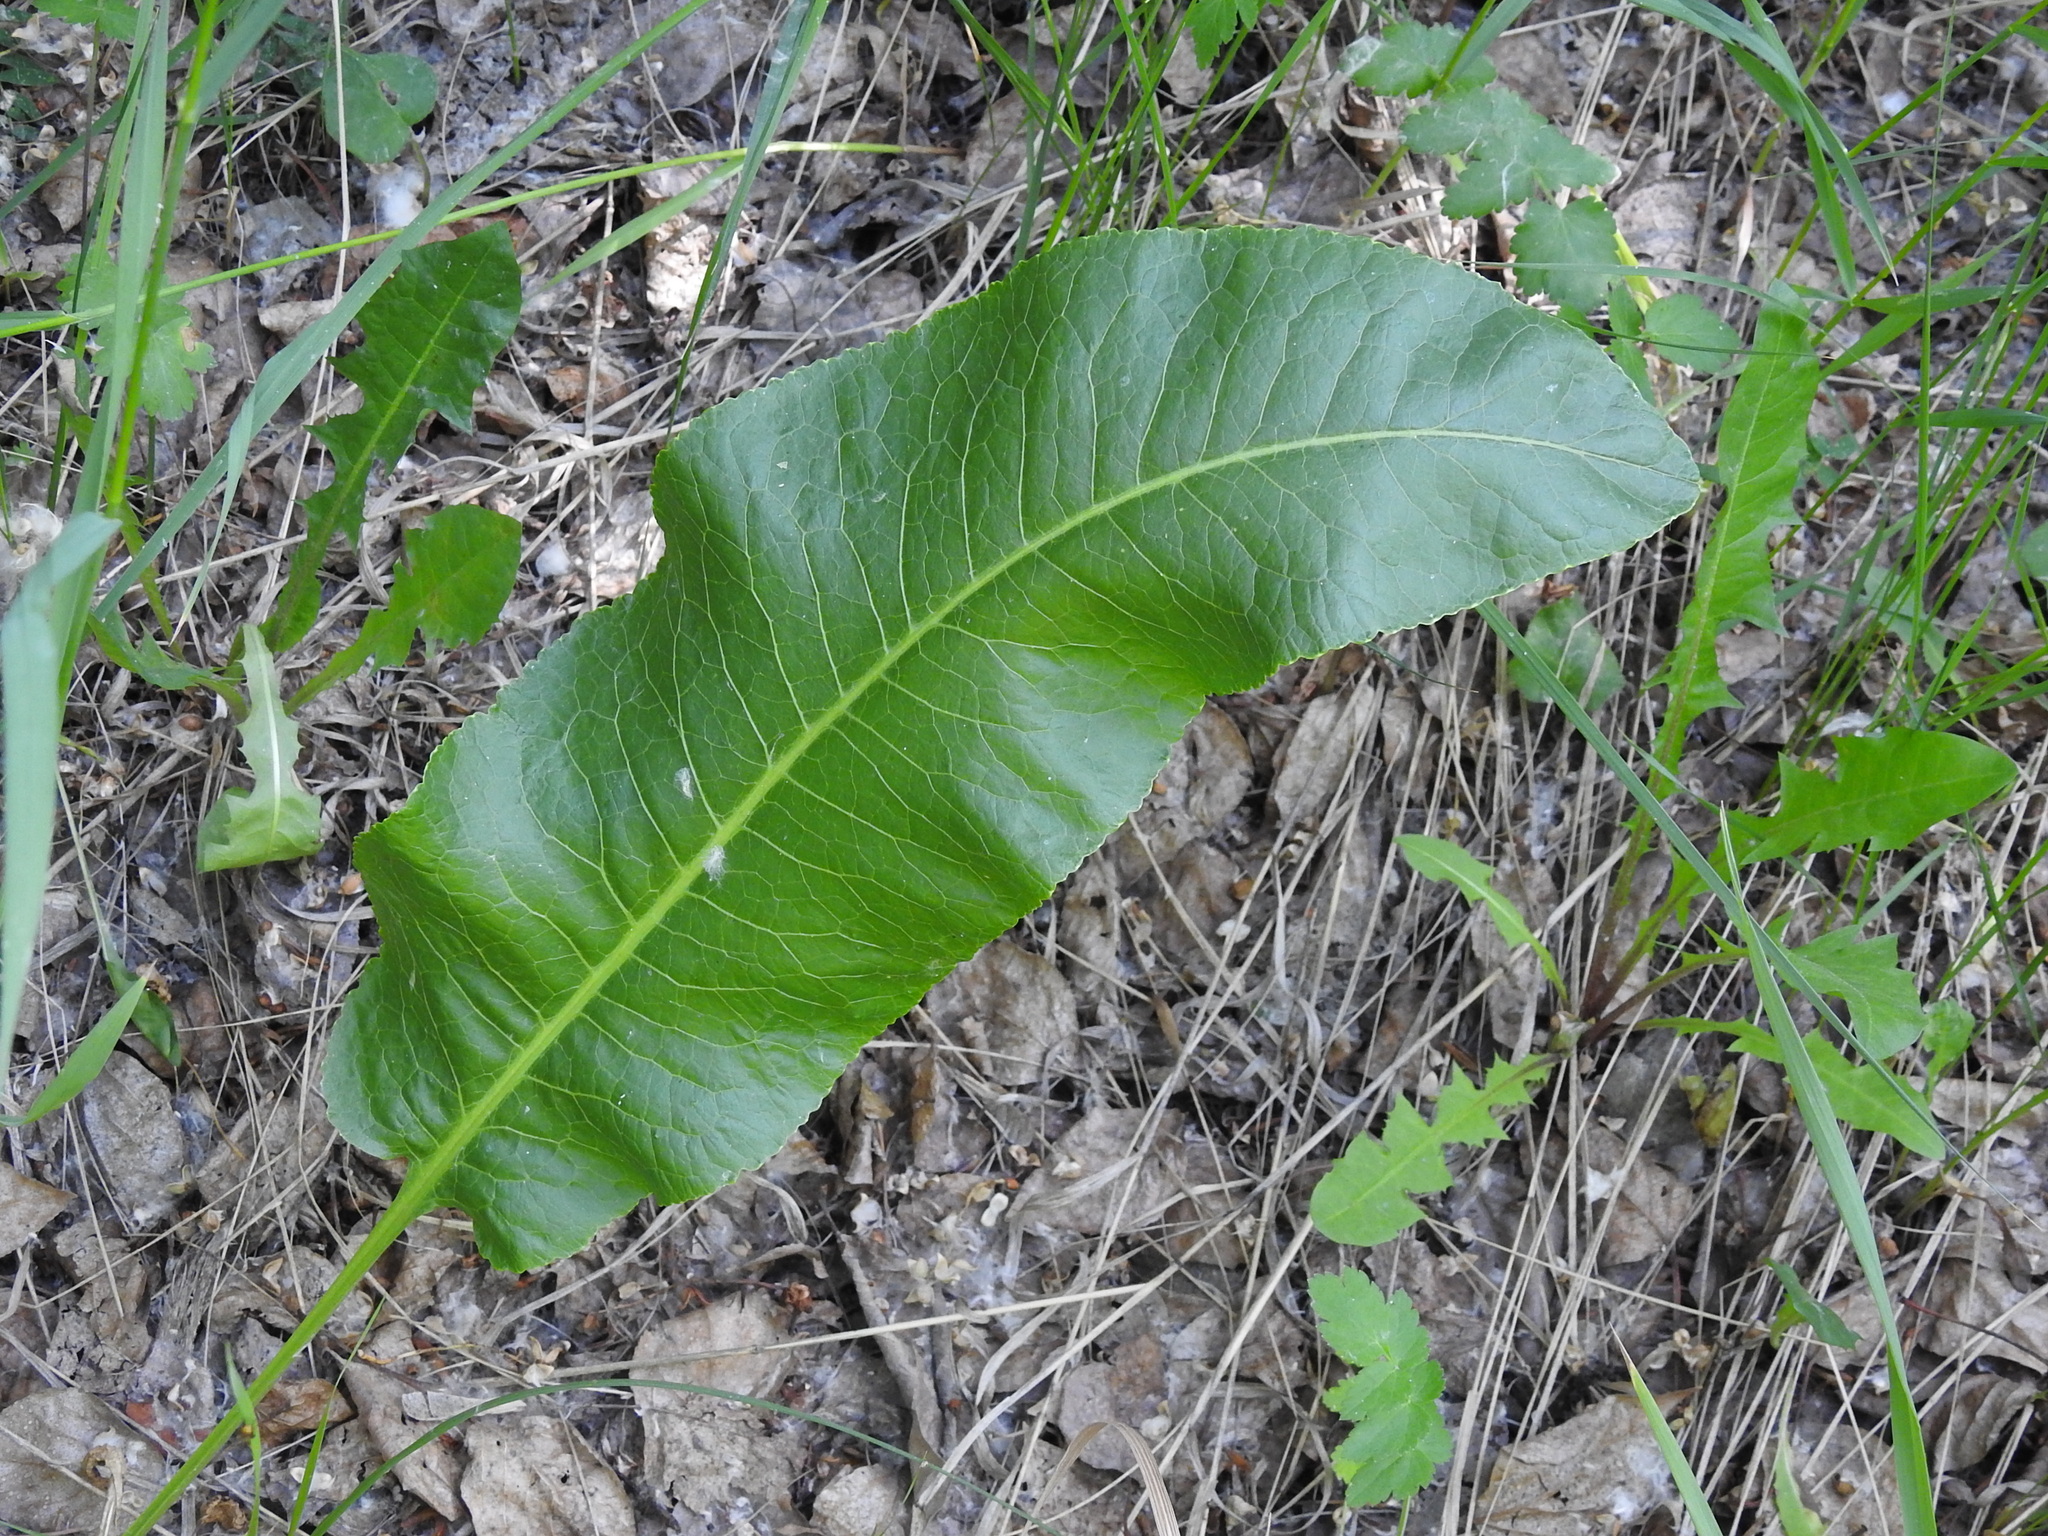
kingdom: Plantae
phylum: Tracheophyta
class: Magnoliopsida
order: Brassicales
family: Brassicaceae
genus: Armoracia
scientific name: Armoracia rusticana
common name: Horseradish
